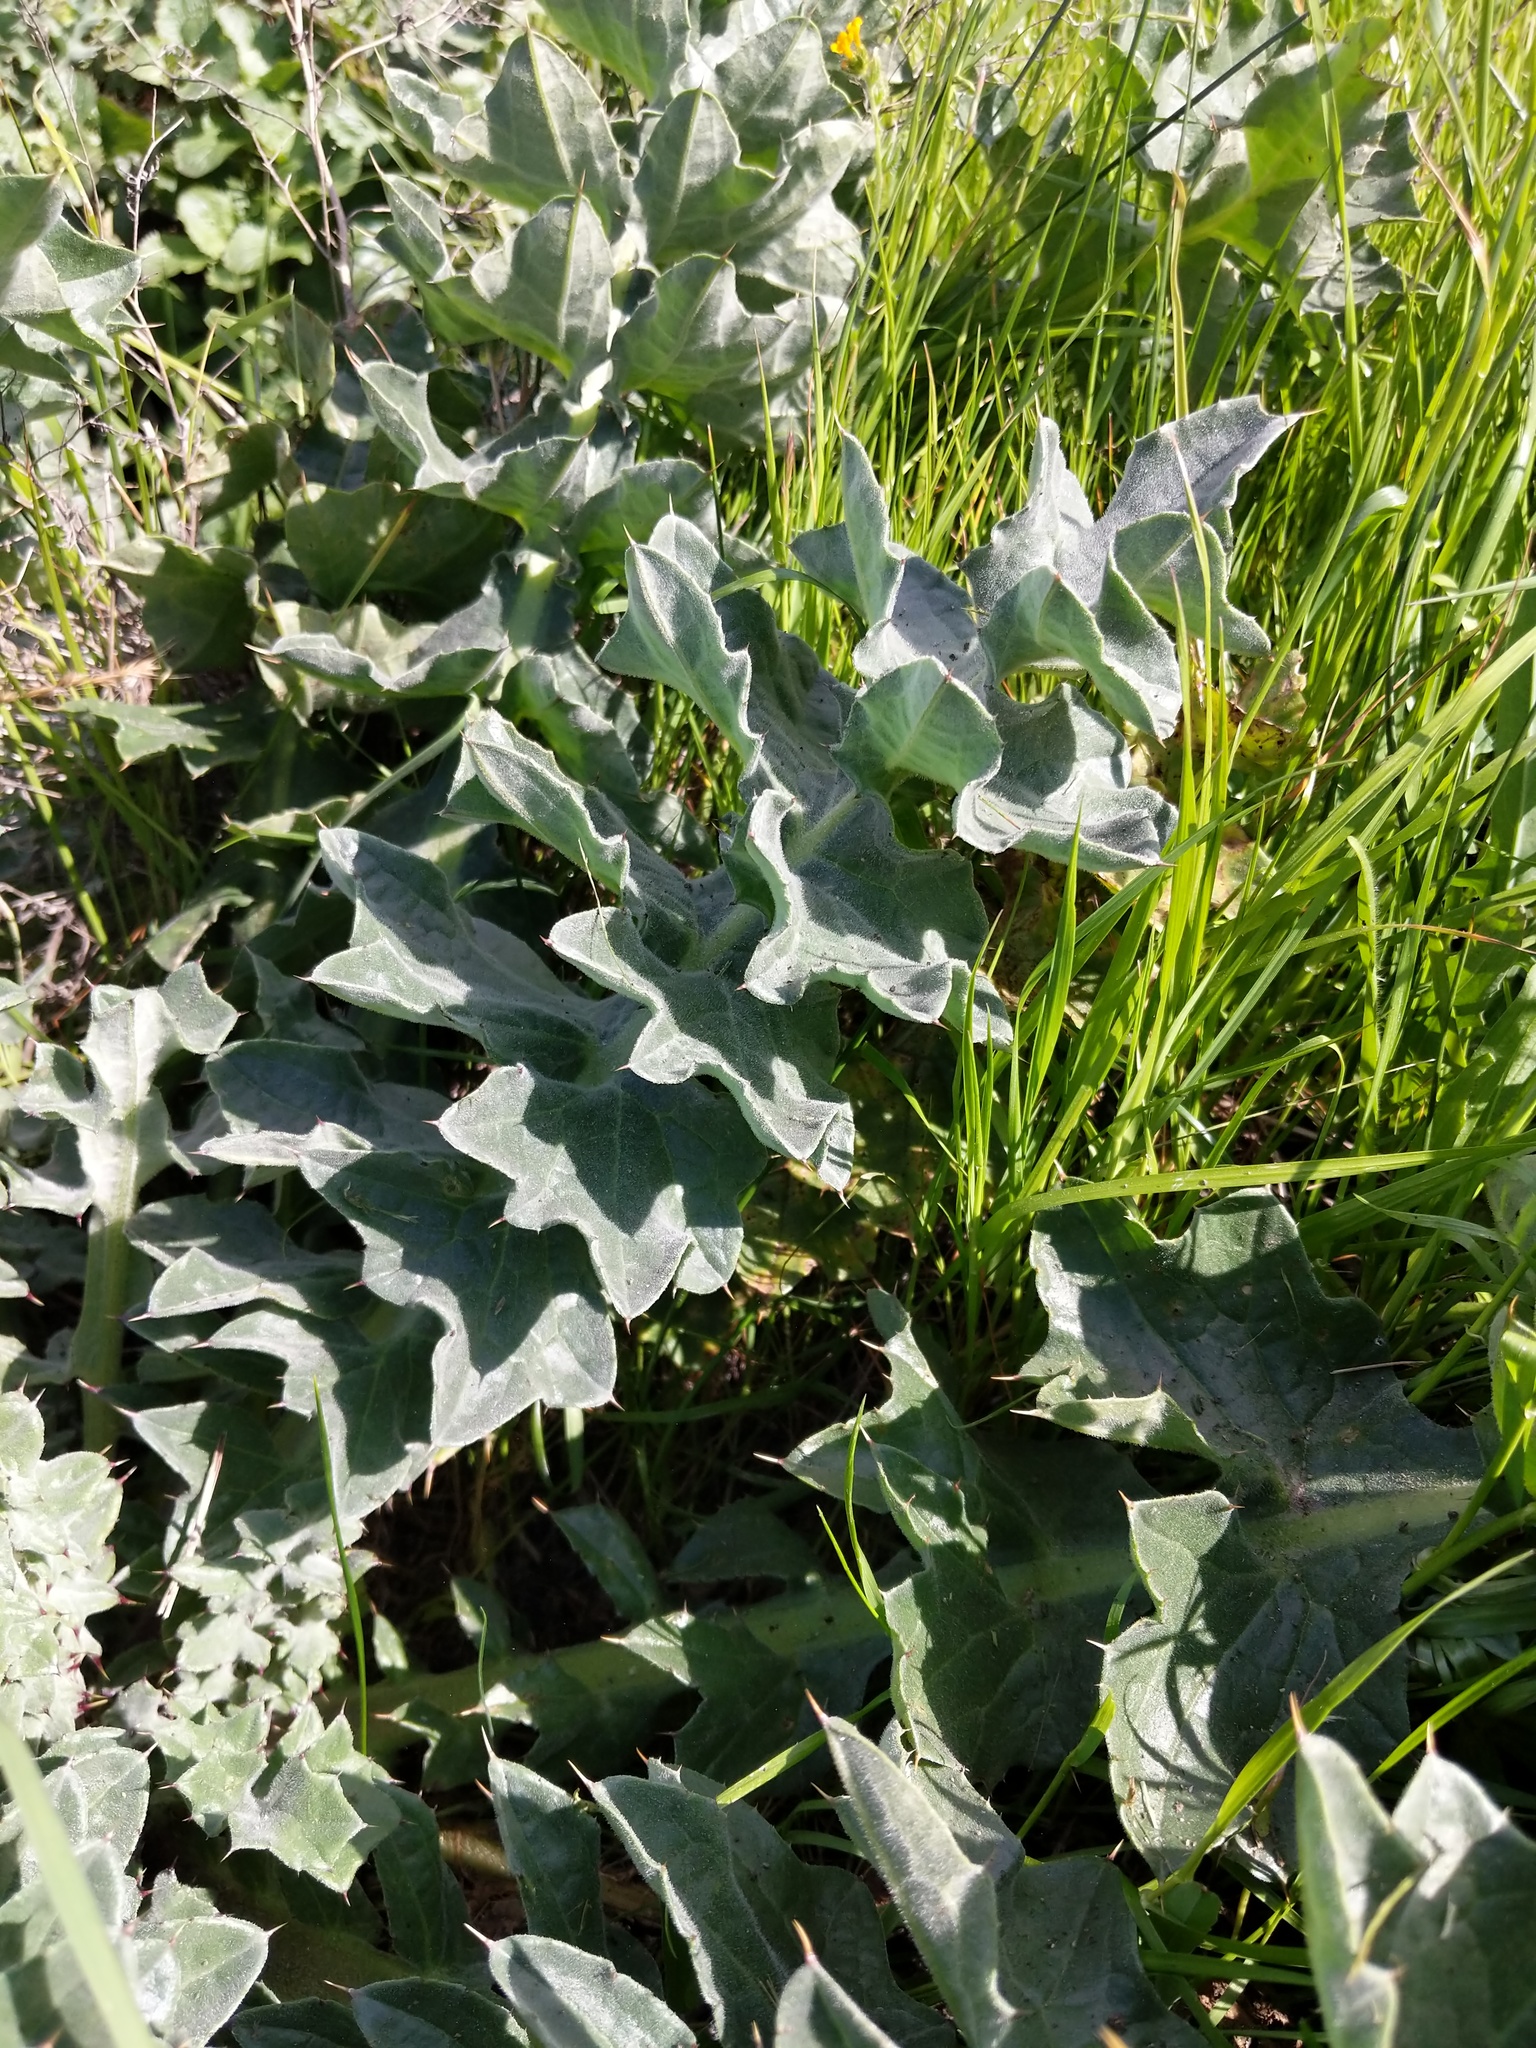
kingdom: Plantae
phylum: Tracheophyta
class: Magnoliopsida
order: Asterales
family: Asteraceae
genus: Cirsium
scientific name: Cirsium fontinale
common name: Fountain thistle
